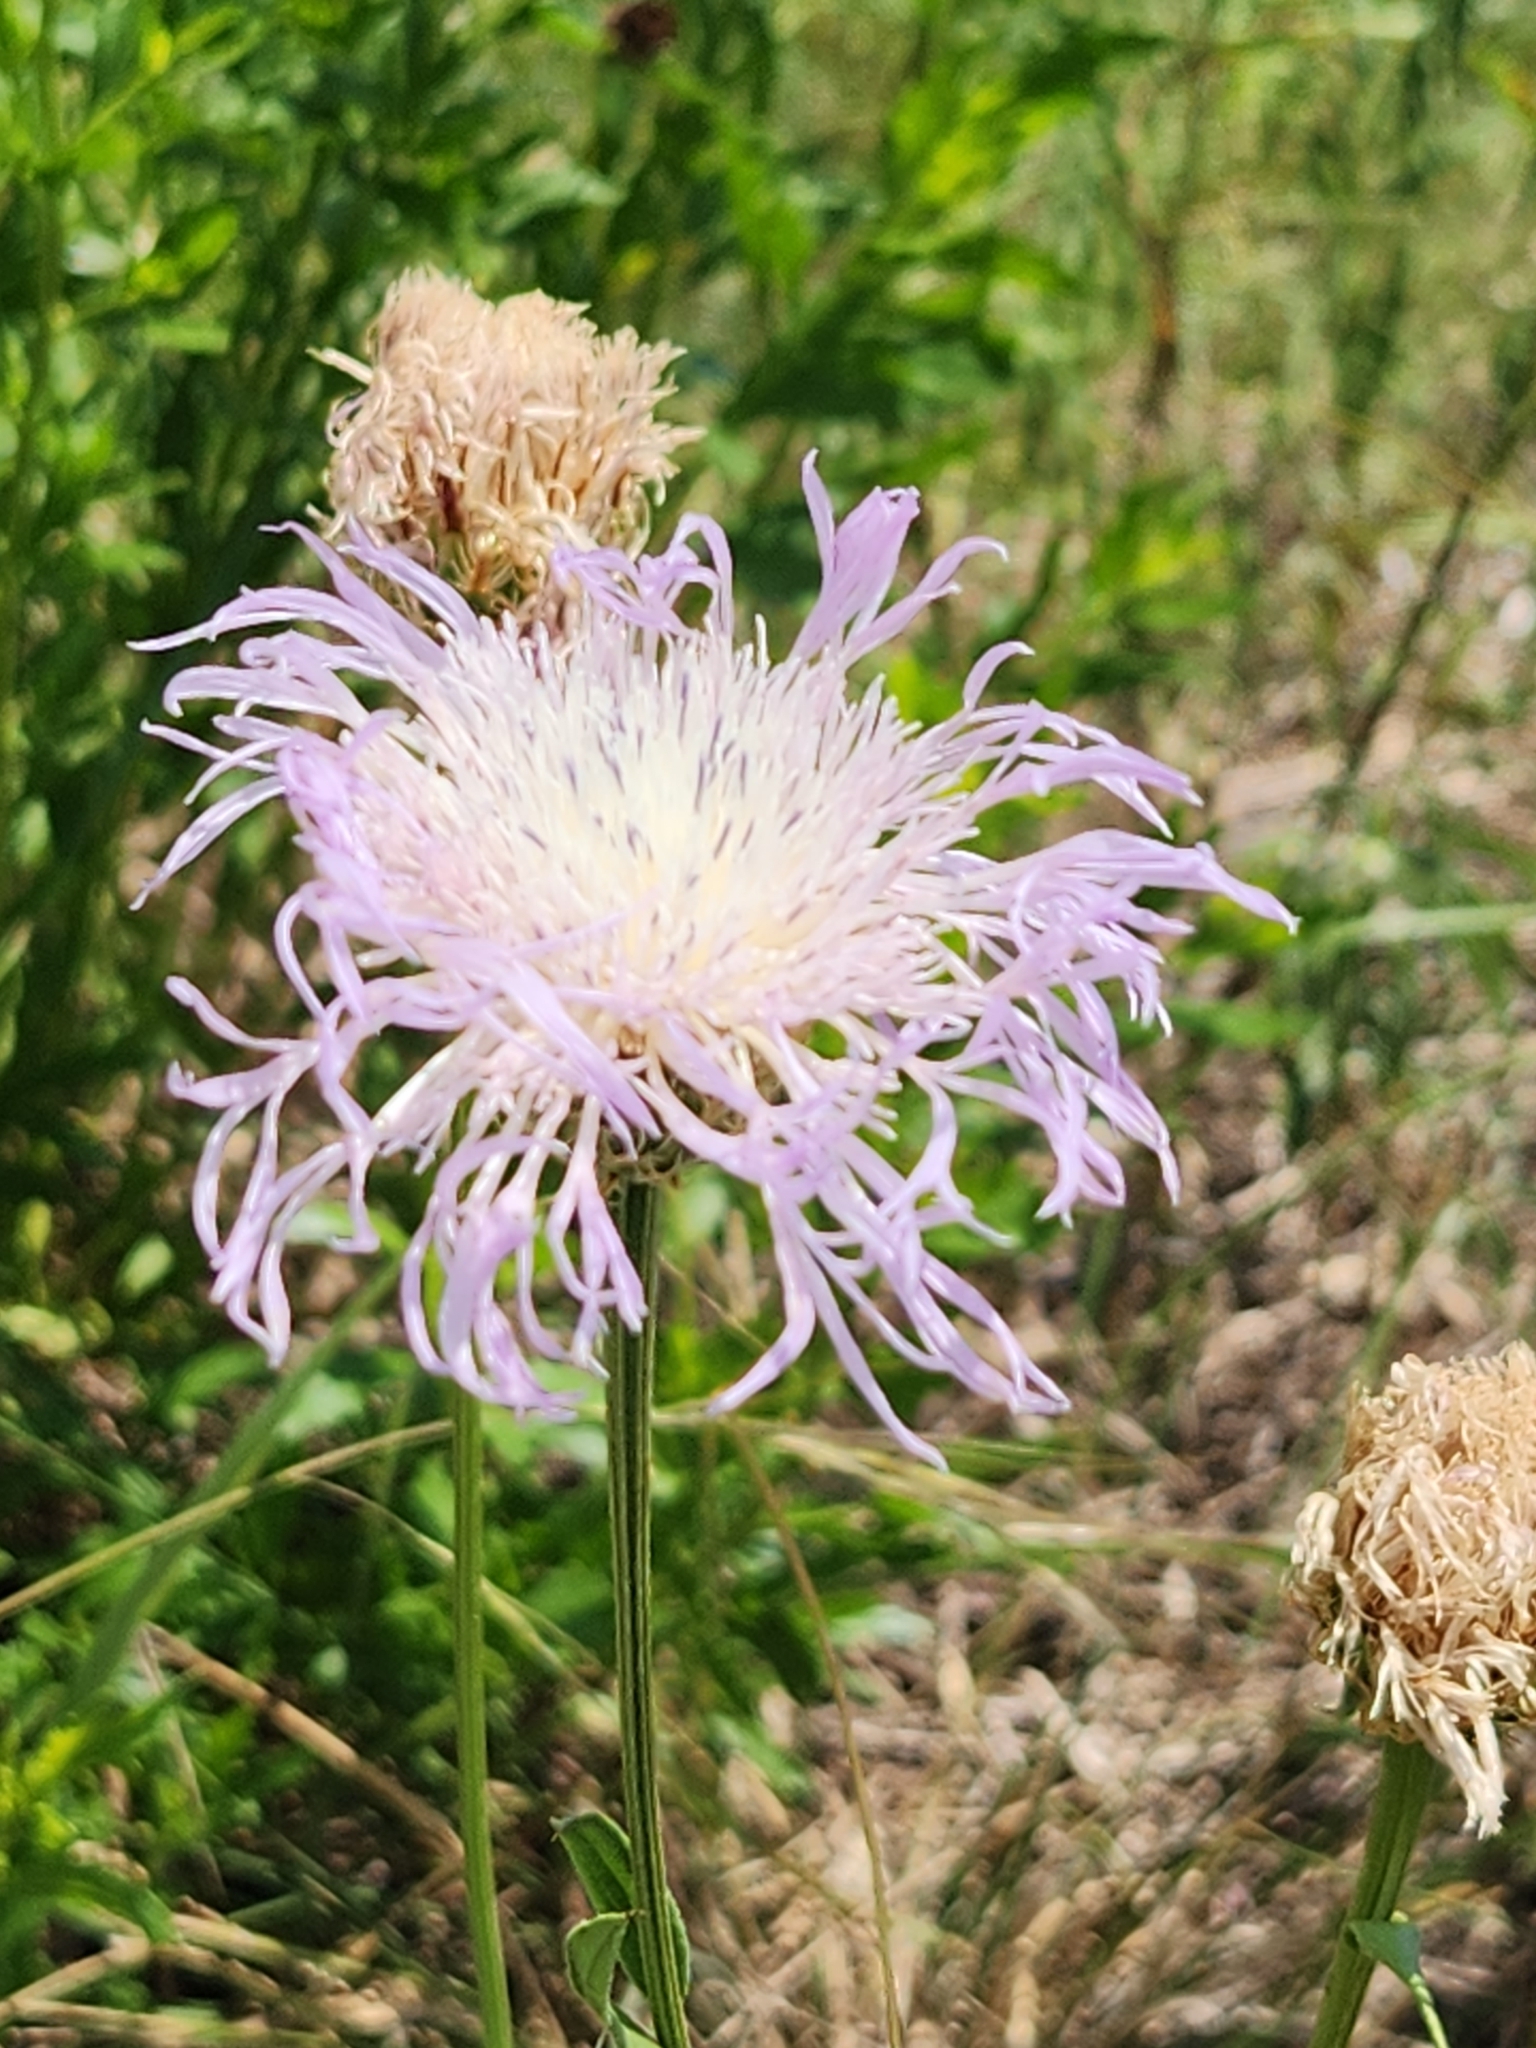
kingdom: Plantae
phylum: Tracheophyta
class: Magnoliopsida
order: Asterales
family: Asteraceae
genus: Plectocephalus
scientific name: Plectocephalus americanus
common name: American basket-flower
